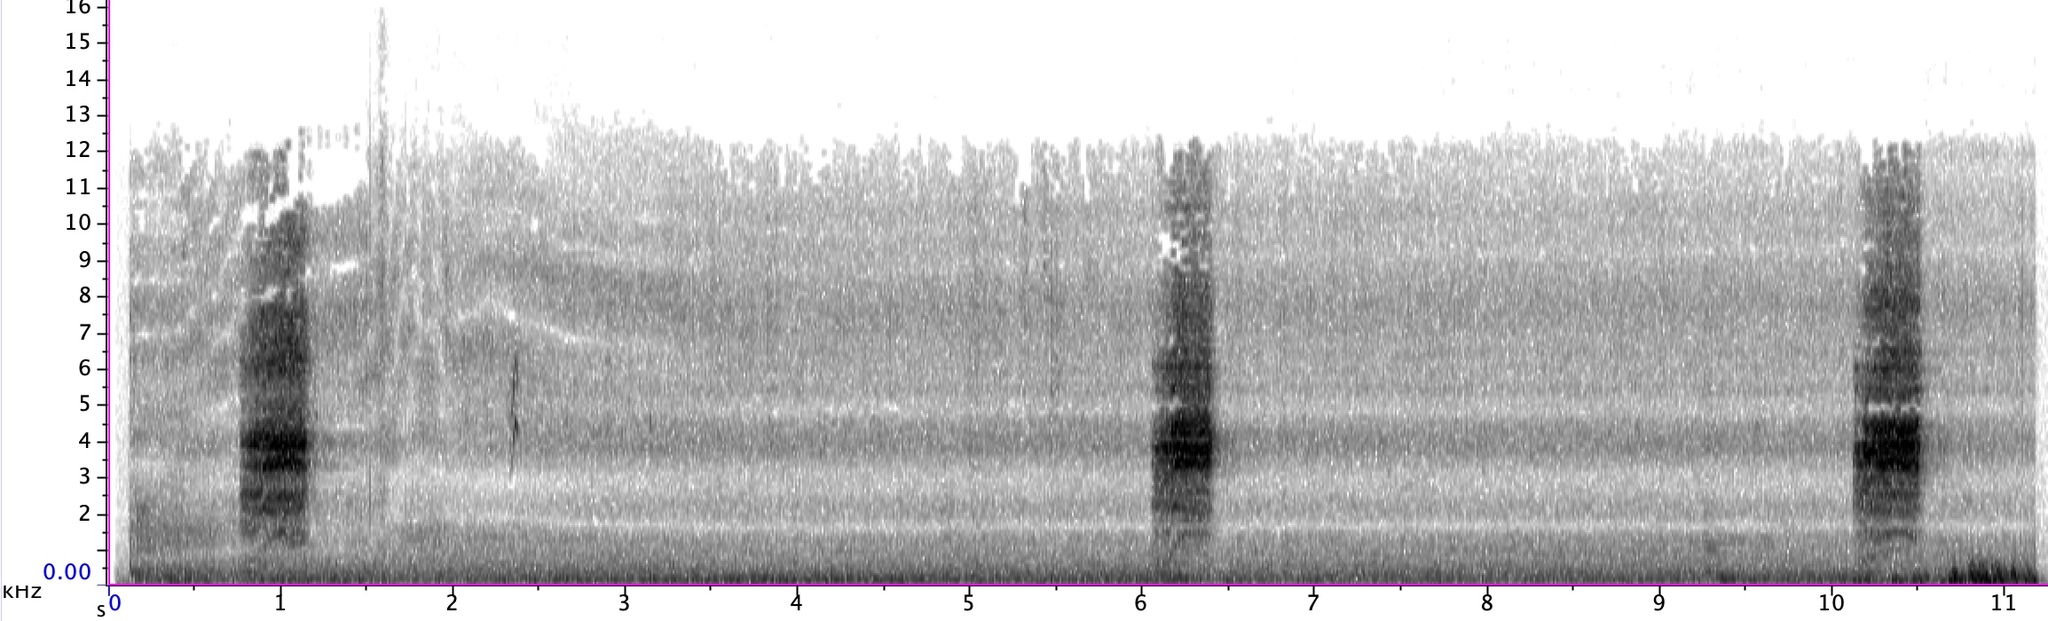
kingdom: Animalia
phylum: Chordata
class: Aves
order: Gruiformes
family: Rallidae
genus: Rallus
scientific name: Rallus limicola
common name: Virginia rail
